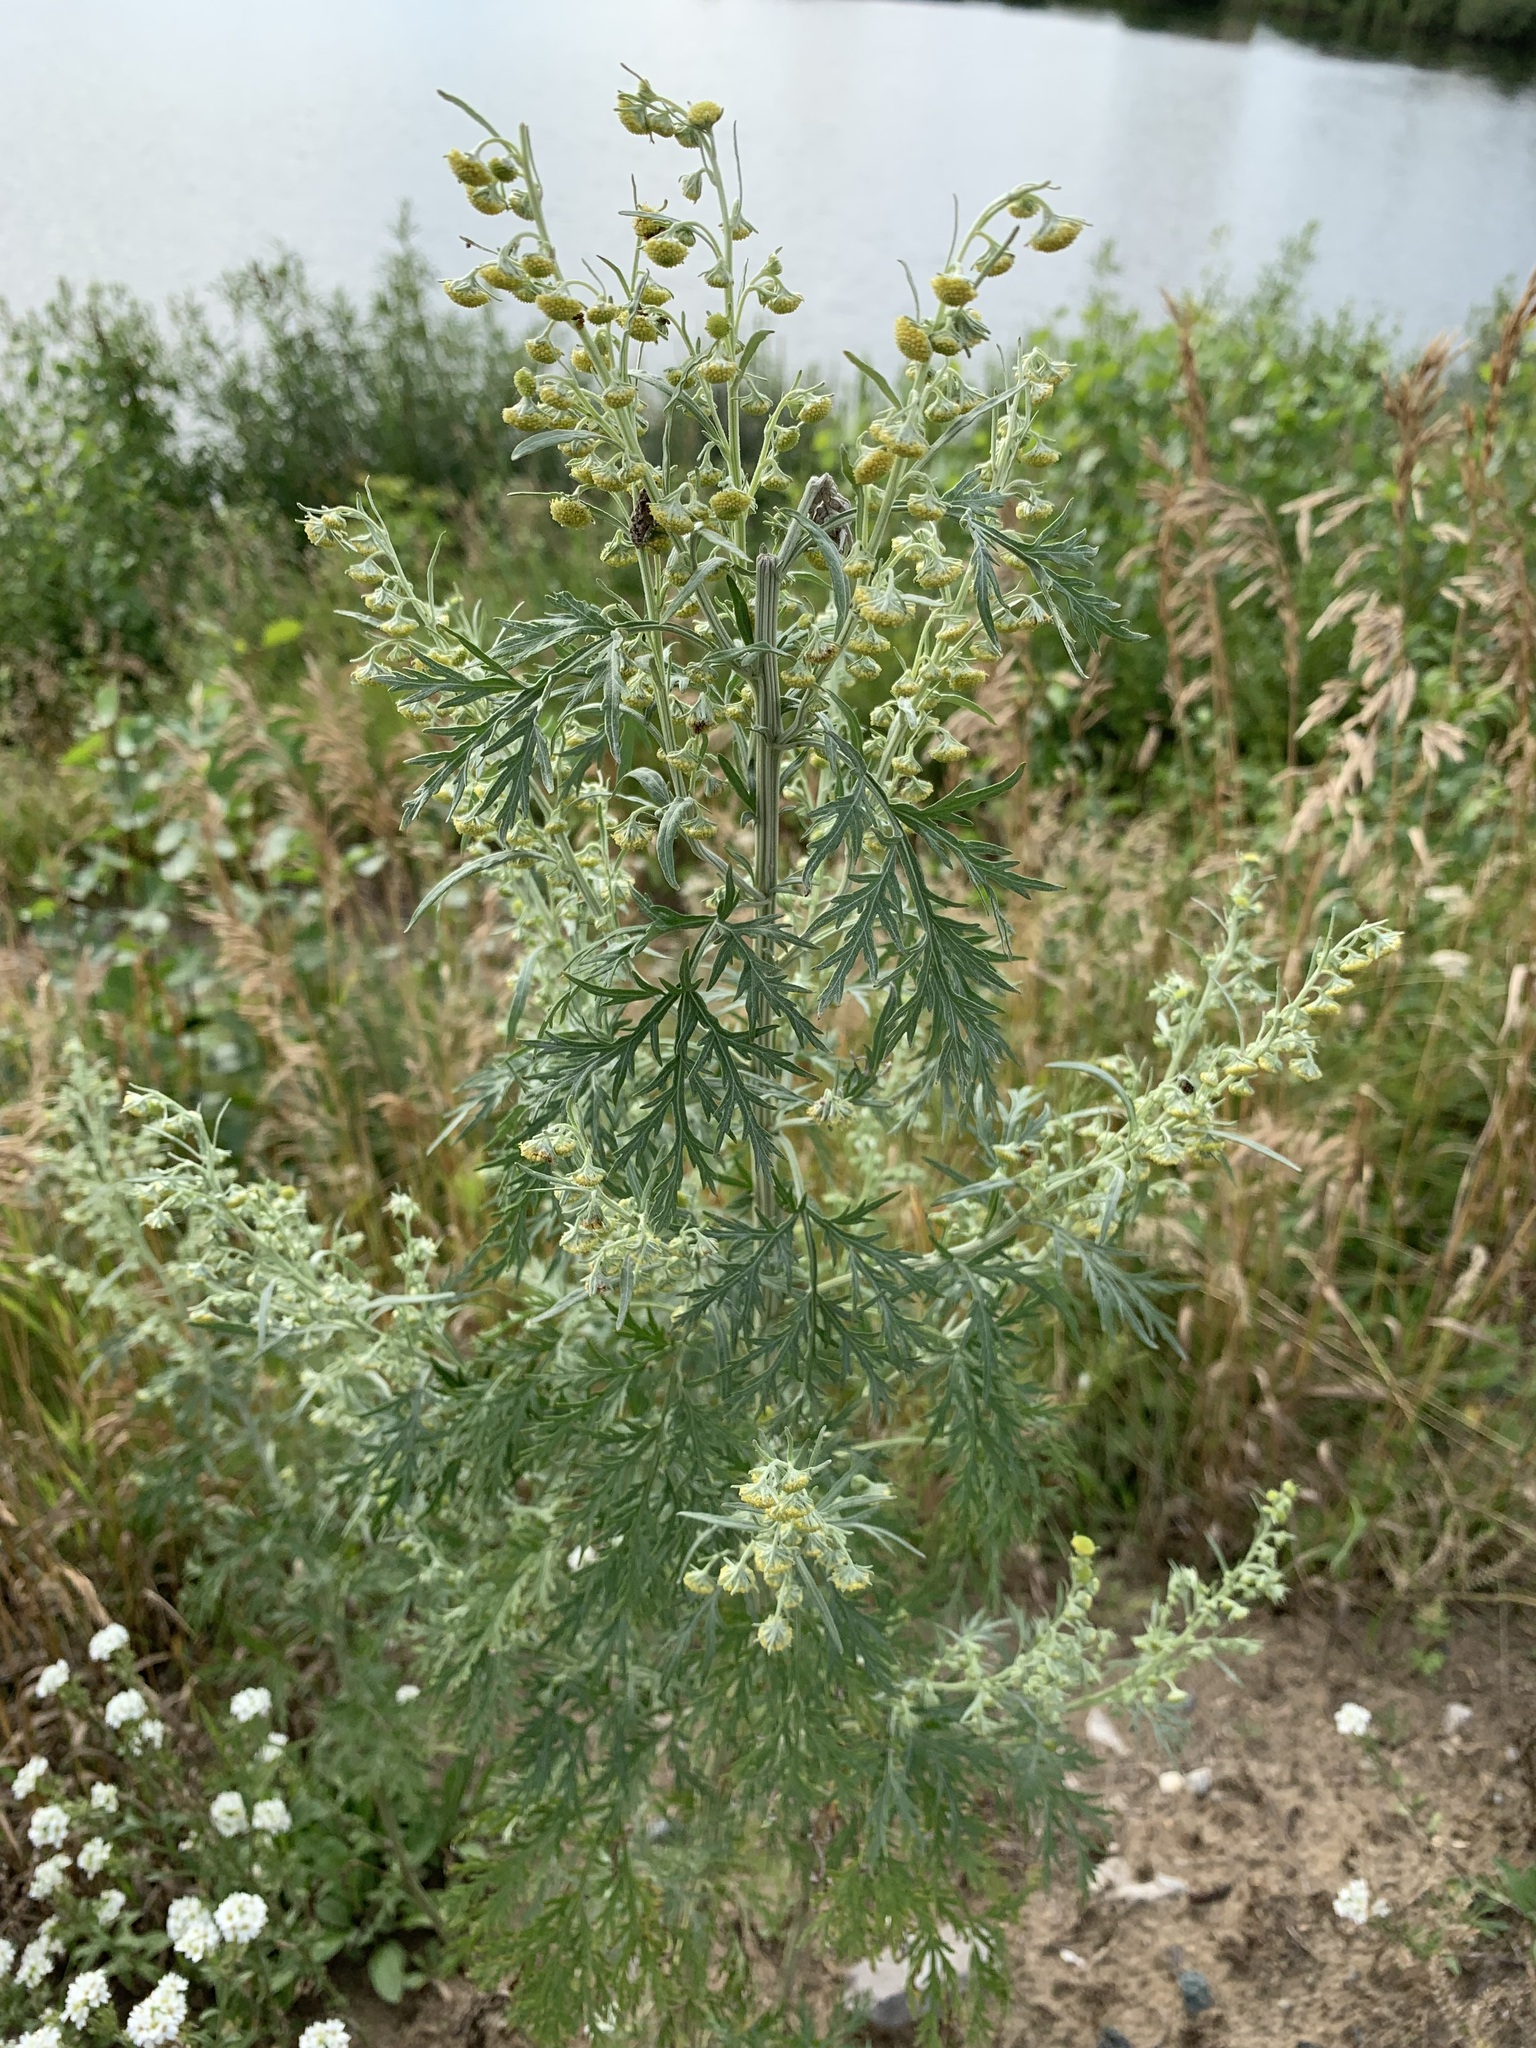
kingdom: Plantae
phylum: Tracheophyta
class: Magnoliopsida
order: Asterales
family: Asteraceae
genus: Artemisia
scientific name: Artemisia sieversiana
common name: Sieversian wormwood
